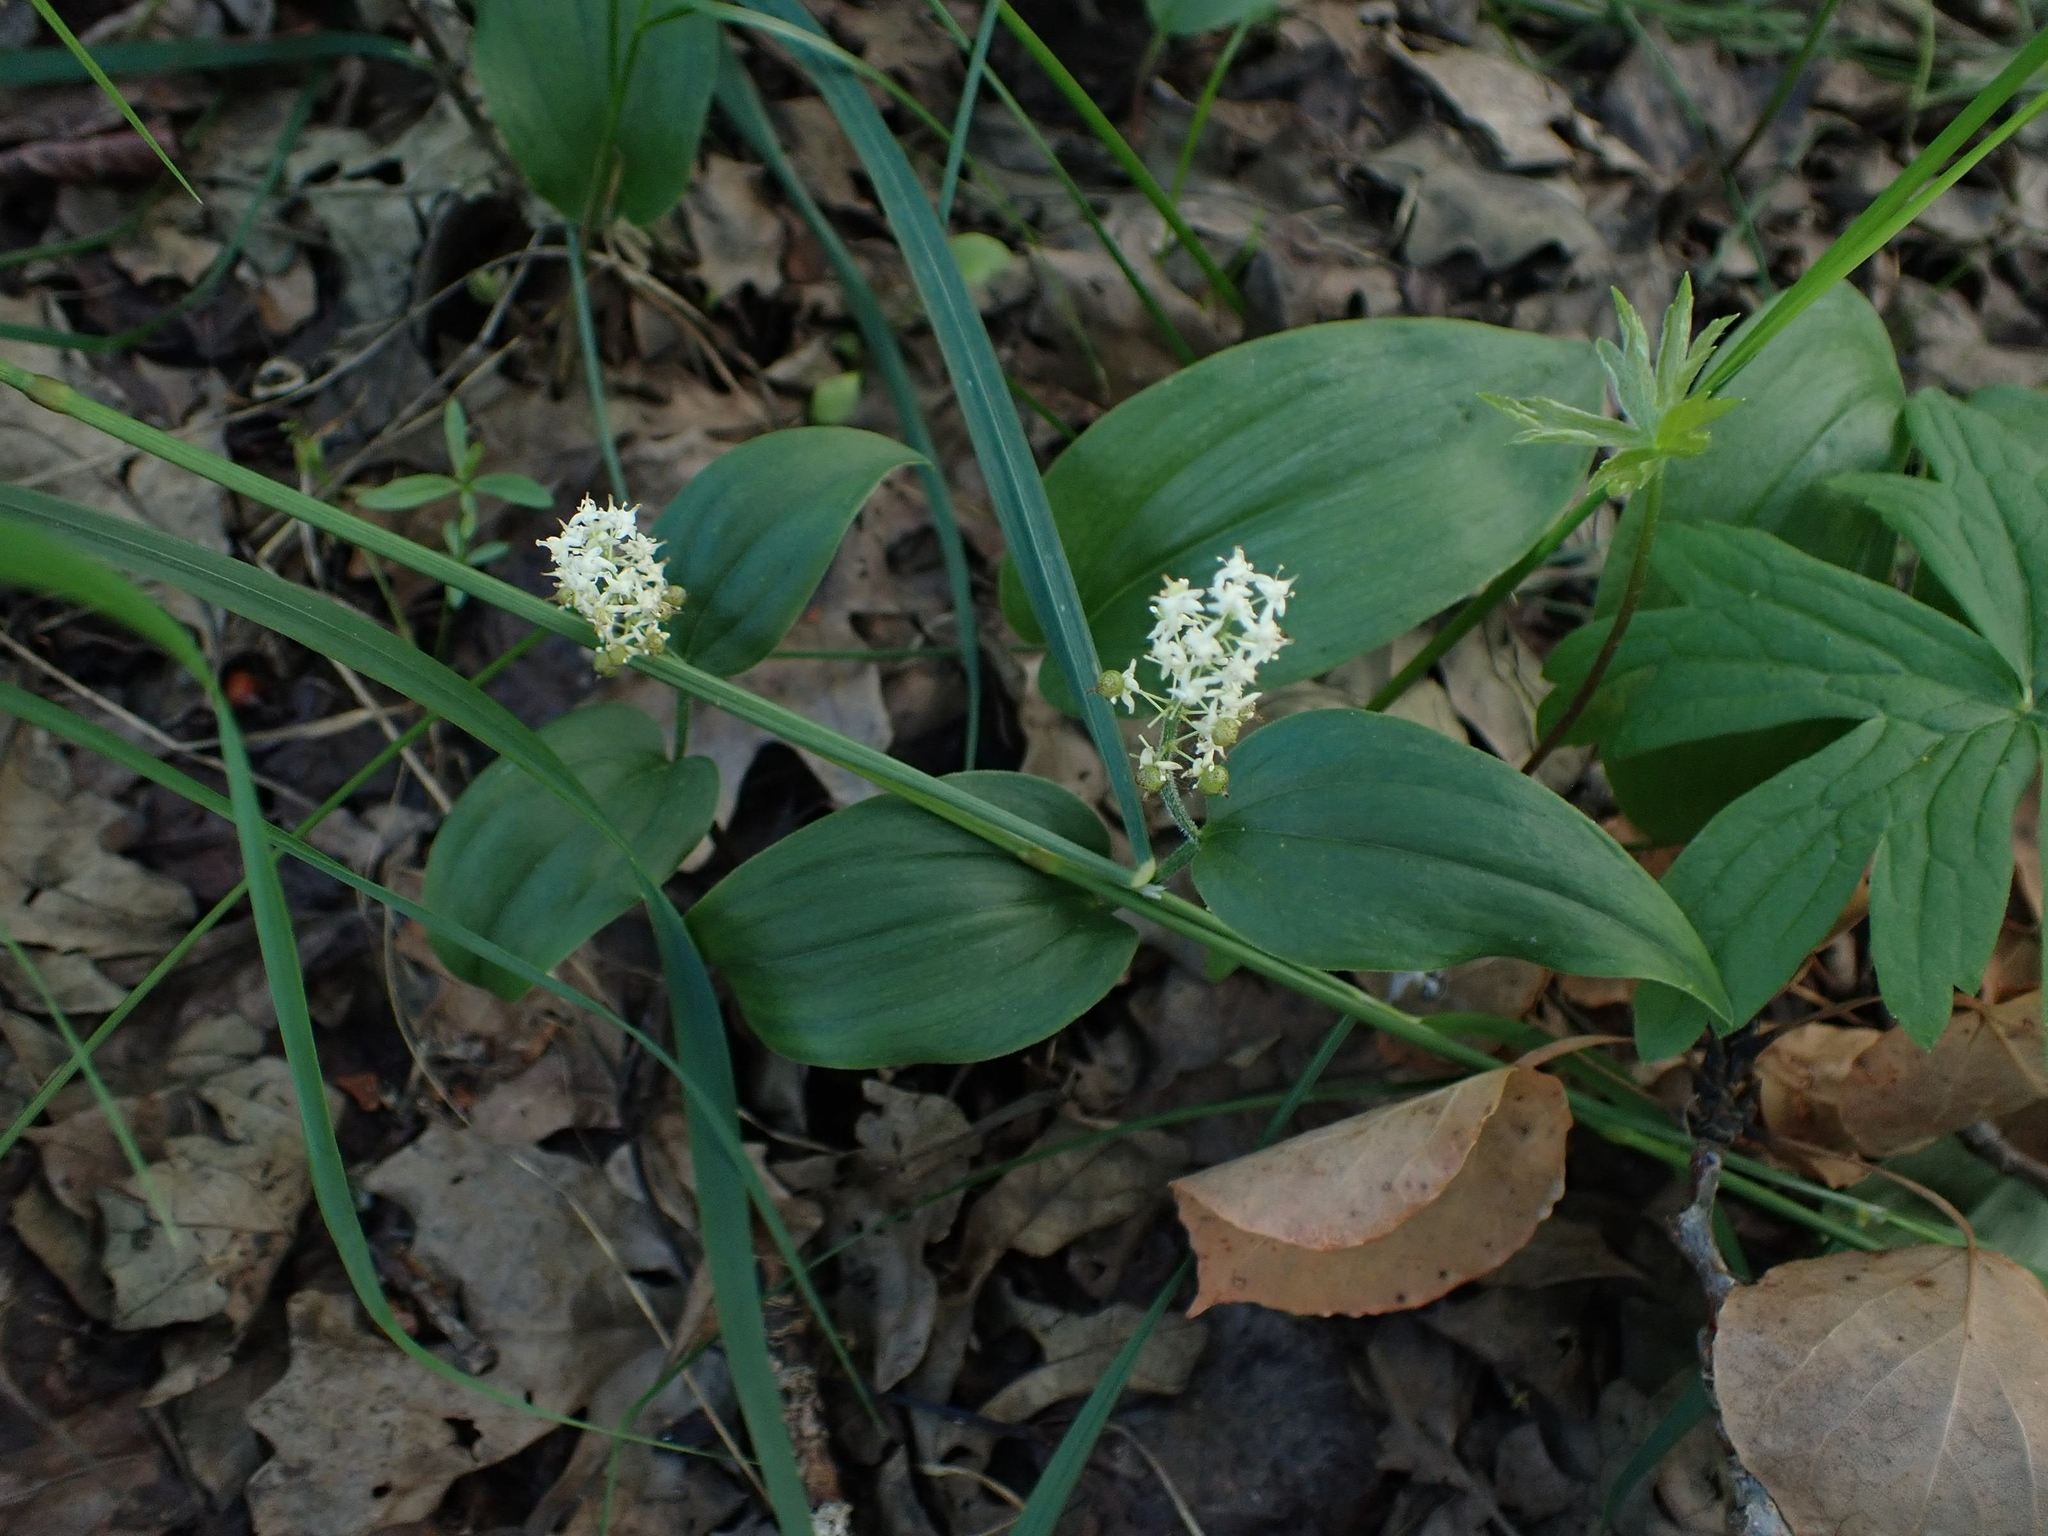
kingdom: Plantae
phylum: Tracheophyta
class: Liliopsida
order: Asparagales
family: Asparagaceae
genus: Maianthemum
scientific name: Maianthemum canadense
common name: False lily-of-the-valley
